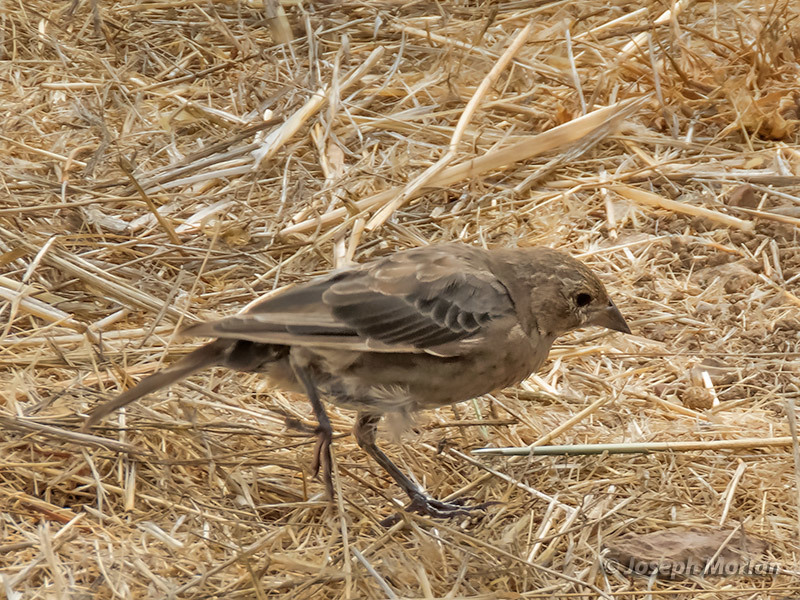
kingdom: Animalia
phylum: Chordata
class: Aves
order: Passeriformes
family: Icteridae
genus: Molothrus
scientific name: Molothrus ater
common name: Brown-headed cowbird
